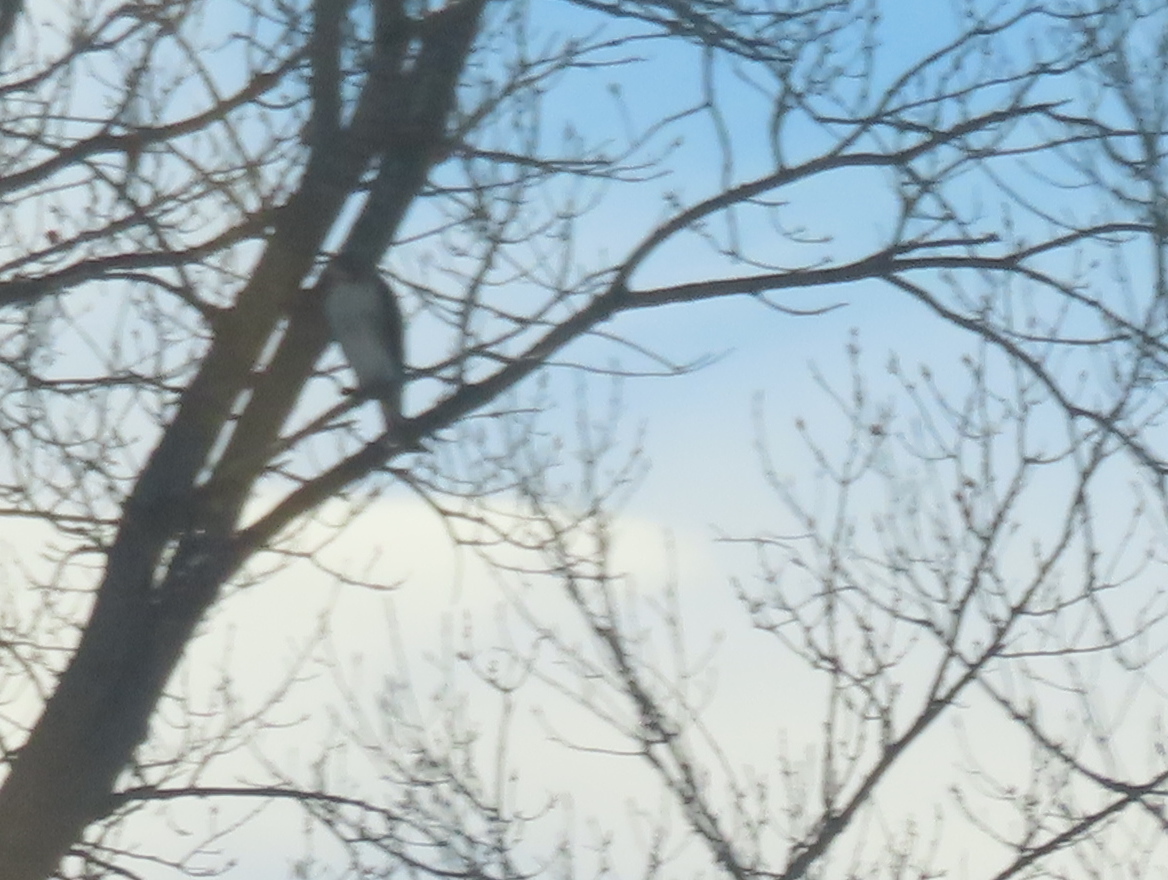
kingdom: Animalia
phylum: Chordata
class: Aves
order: Accipitriformes
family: Accipitridae
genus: Buteo
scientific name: Buteo jamaicensis
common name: Red-tailed hawk
